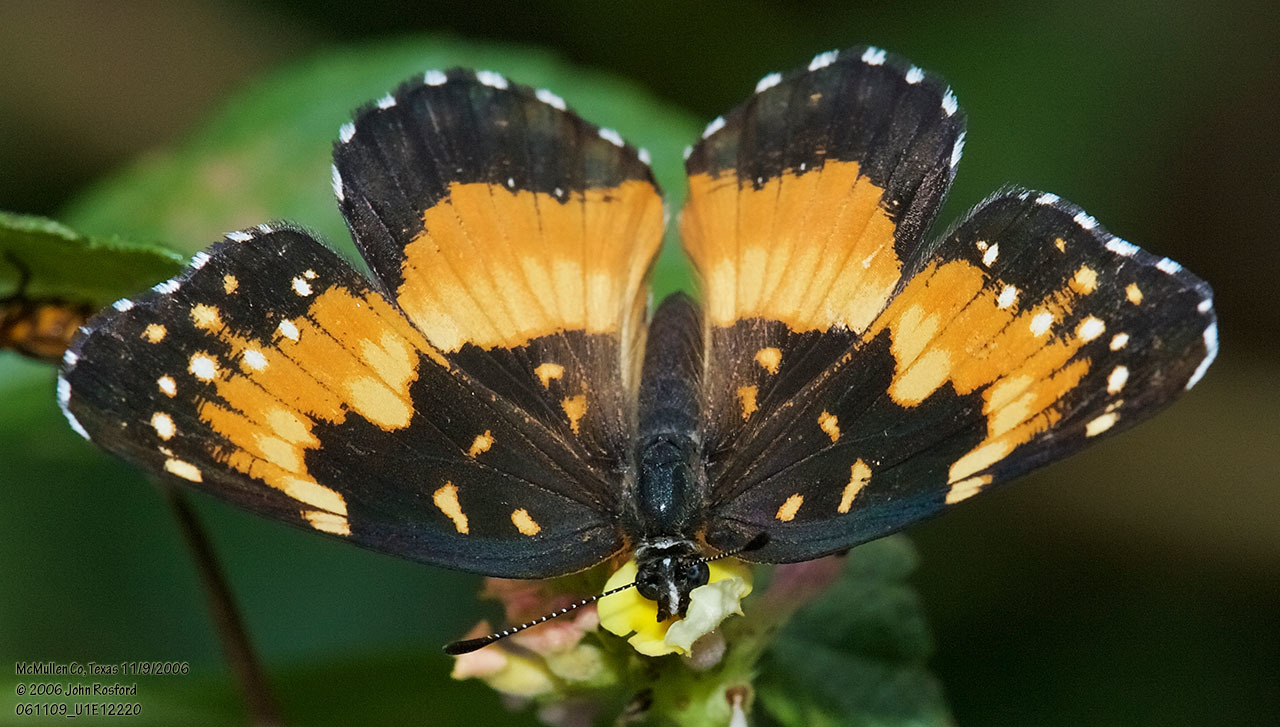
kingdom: Animalia
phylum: Arthropoda
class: Insecta
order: Lepidoptera
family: Nymphalidae
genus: Chlosyne
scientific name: Chlosyne lacinia
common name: Bordered patch
